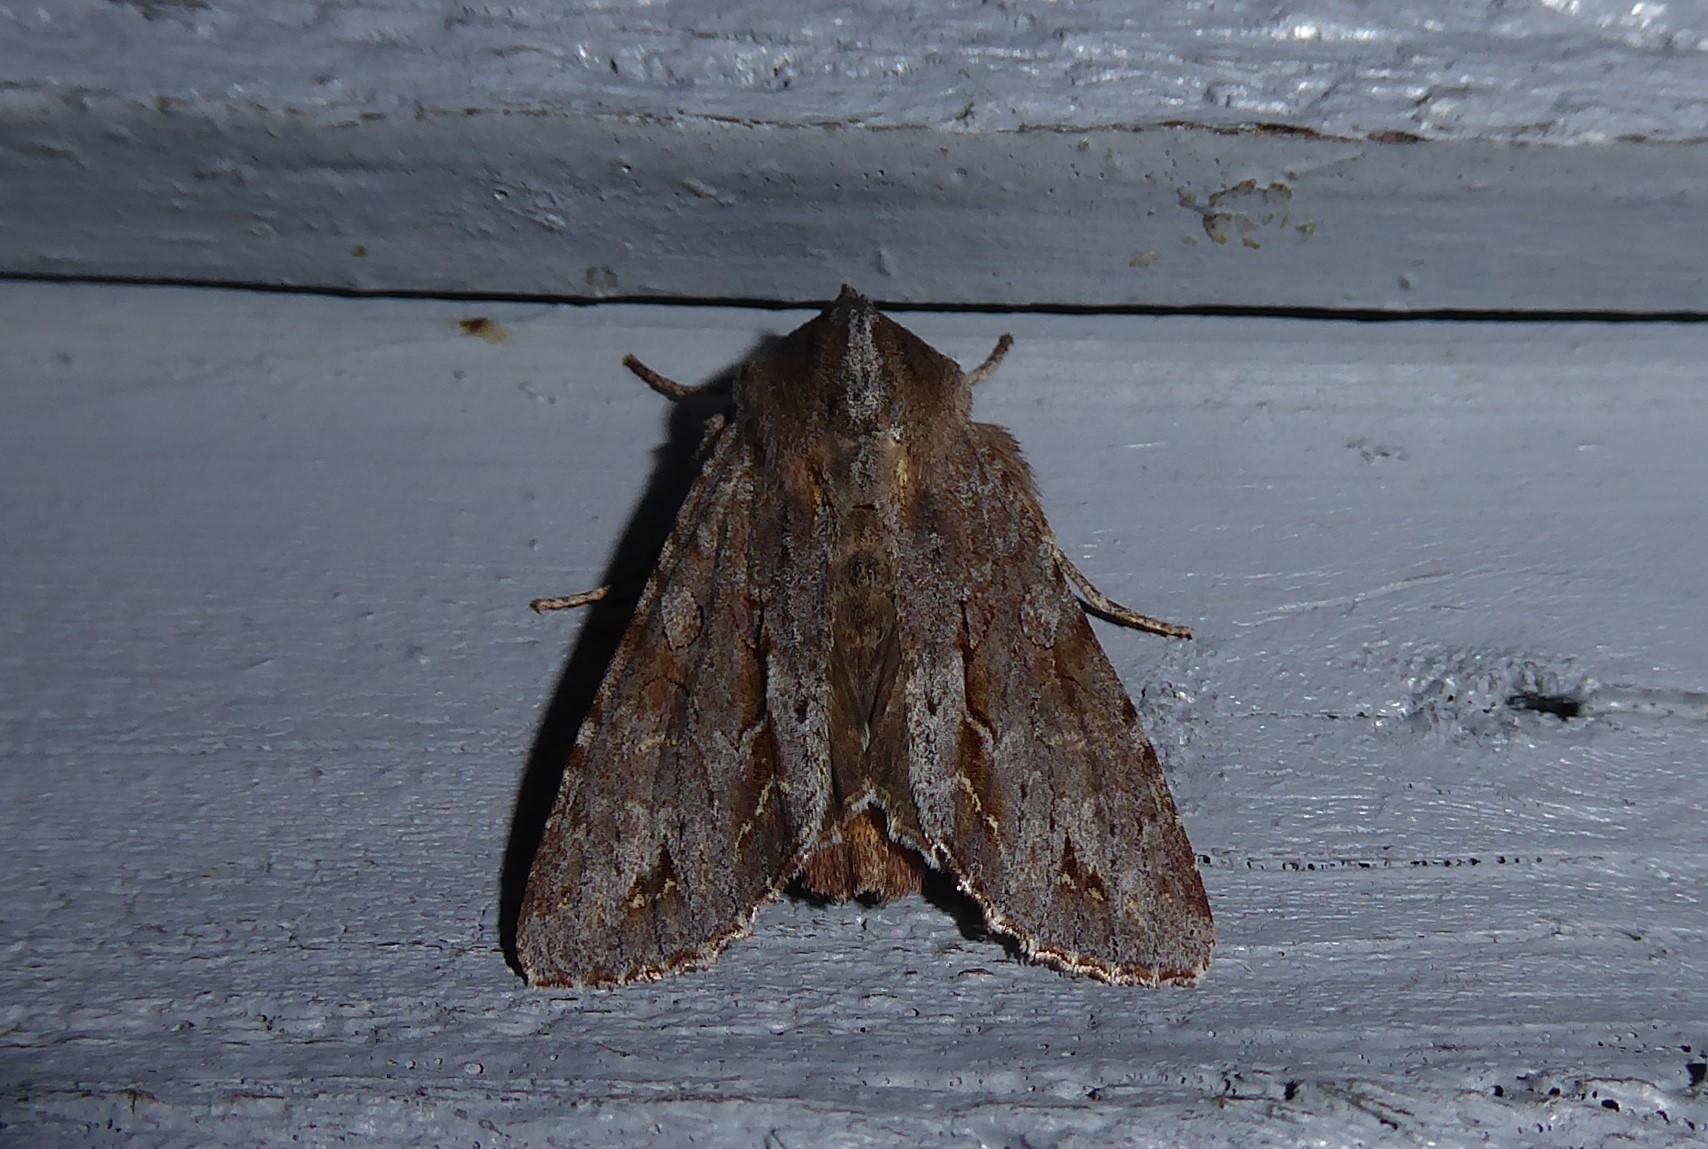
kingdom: Animalia
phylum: Arthropoda
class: Insecta
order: Lepidoptera
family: Noctuidae
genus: Ichneutica
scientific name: Ichneutica
